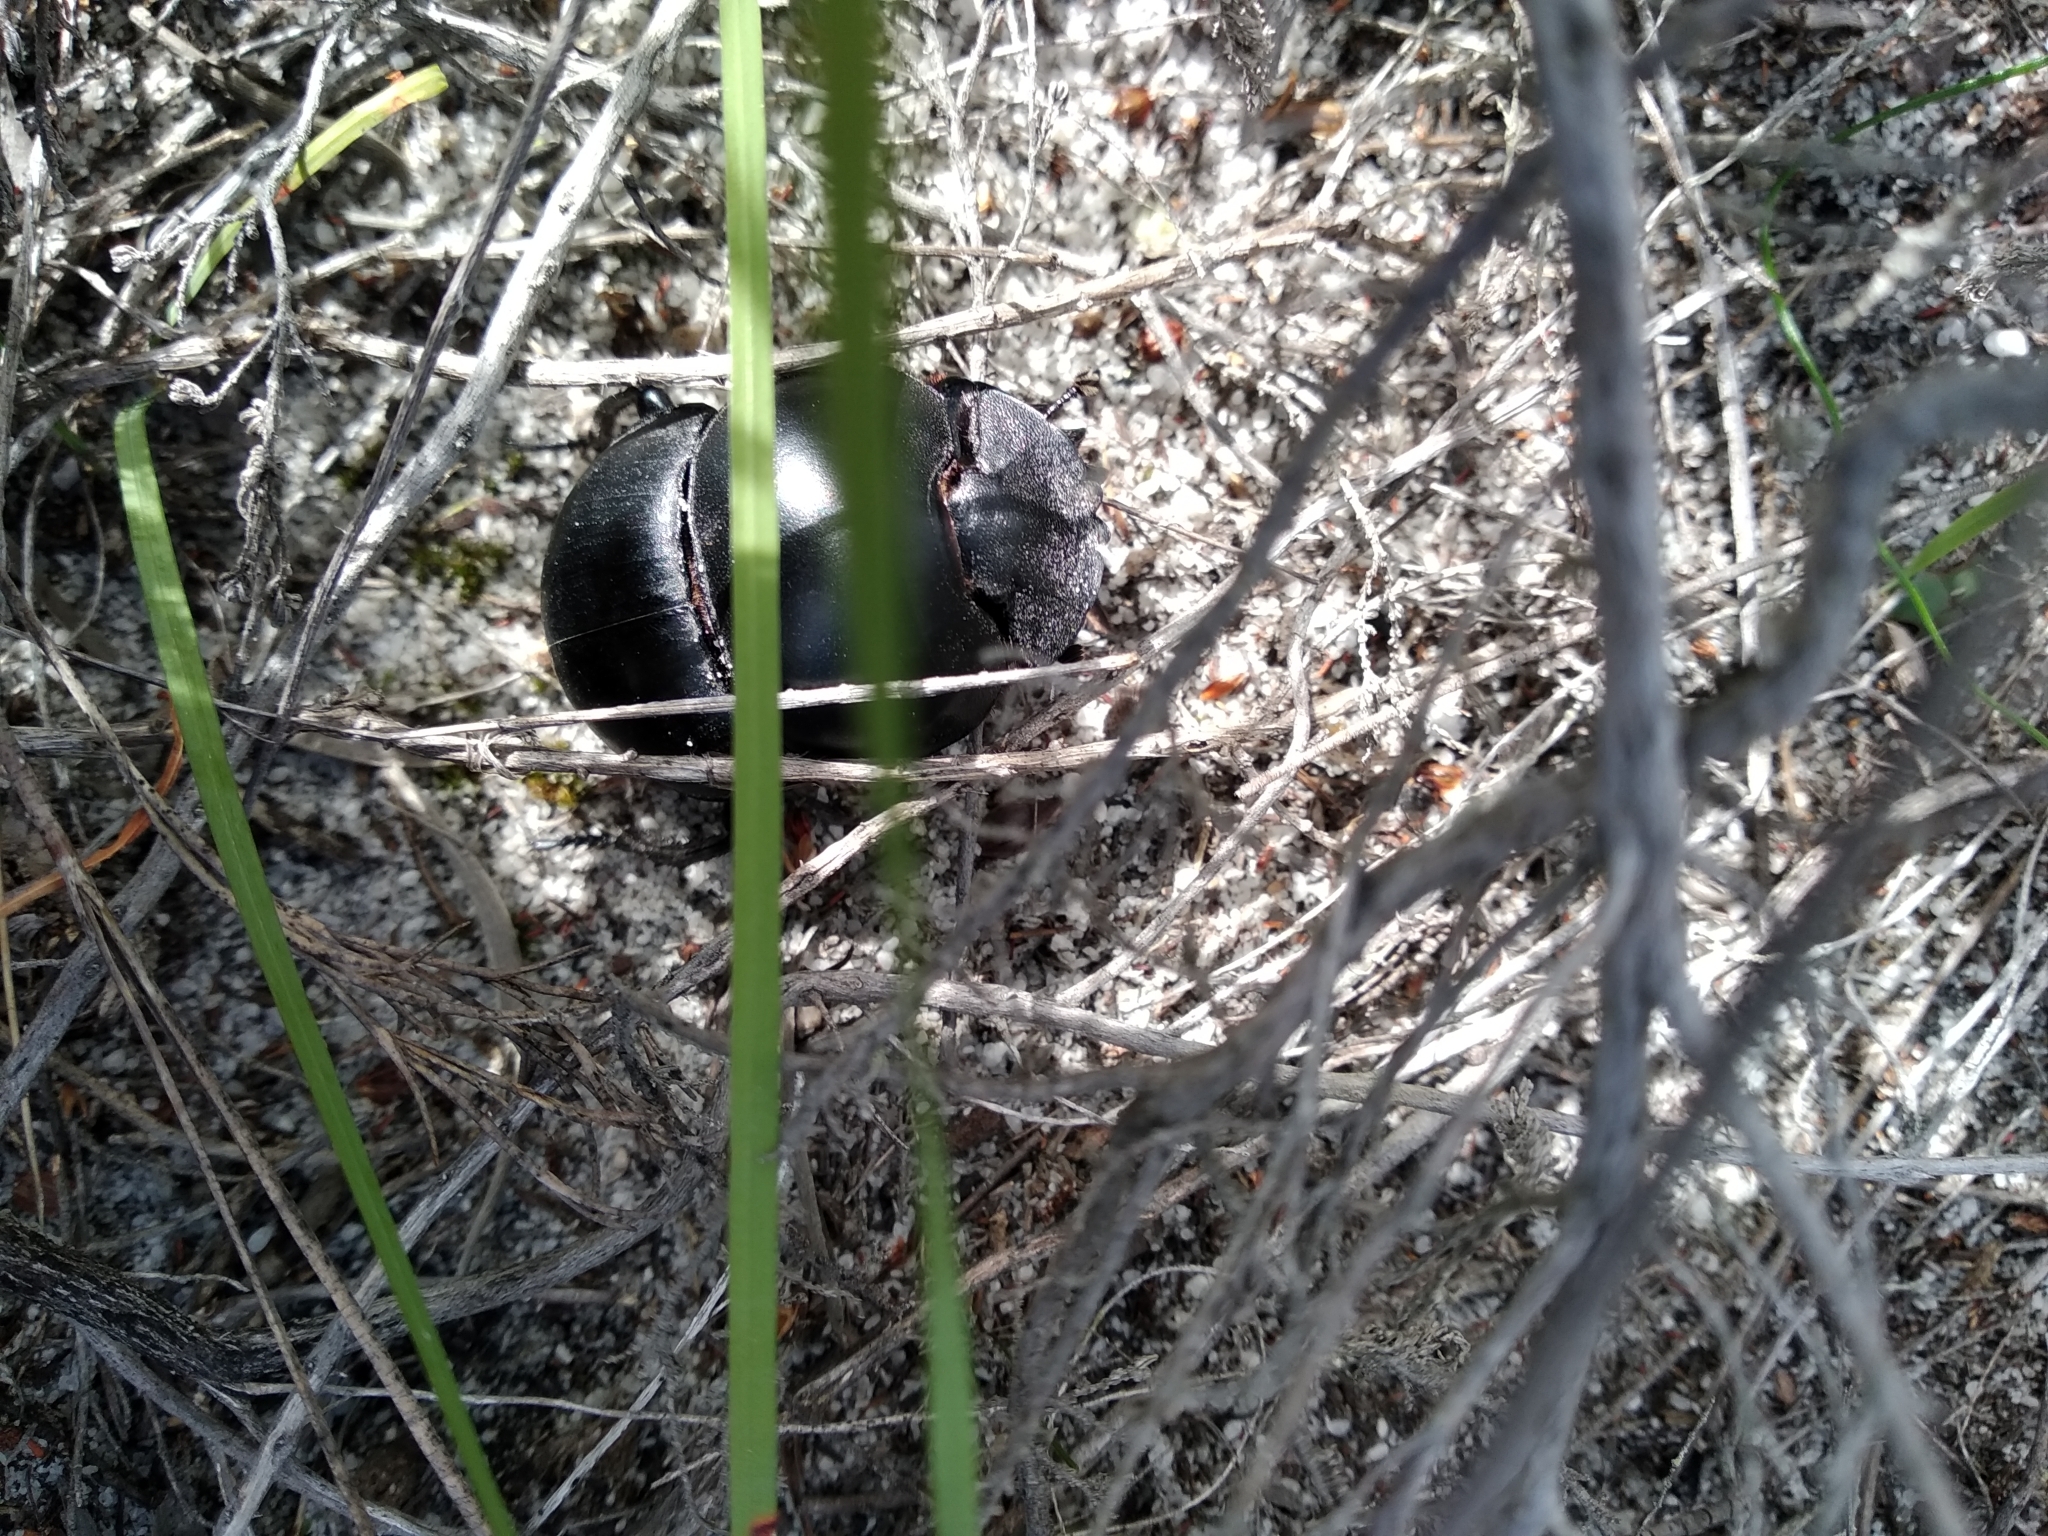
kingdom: Animalia
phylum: Arthropoda
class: Insecta
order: Coleoptera
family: Scarabaeidae
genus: Circellium
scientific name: Circellium bacchus
